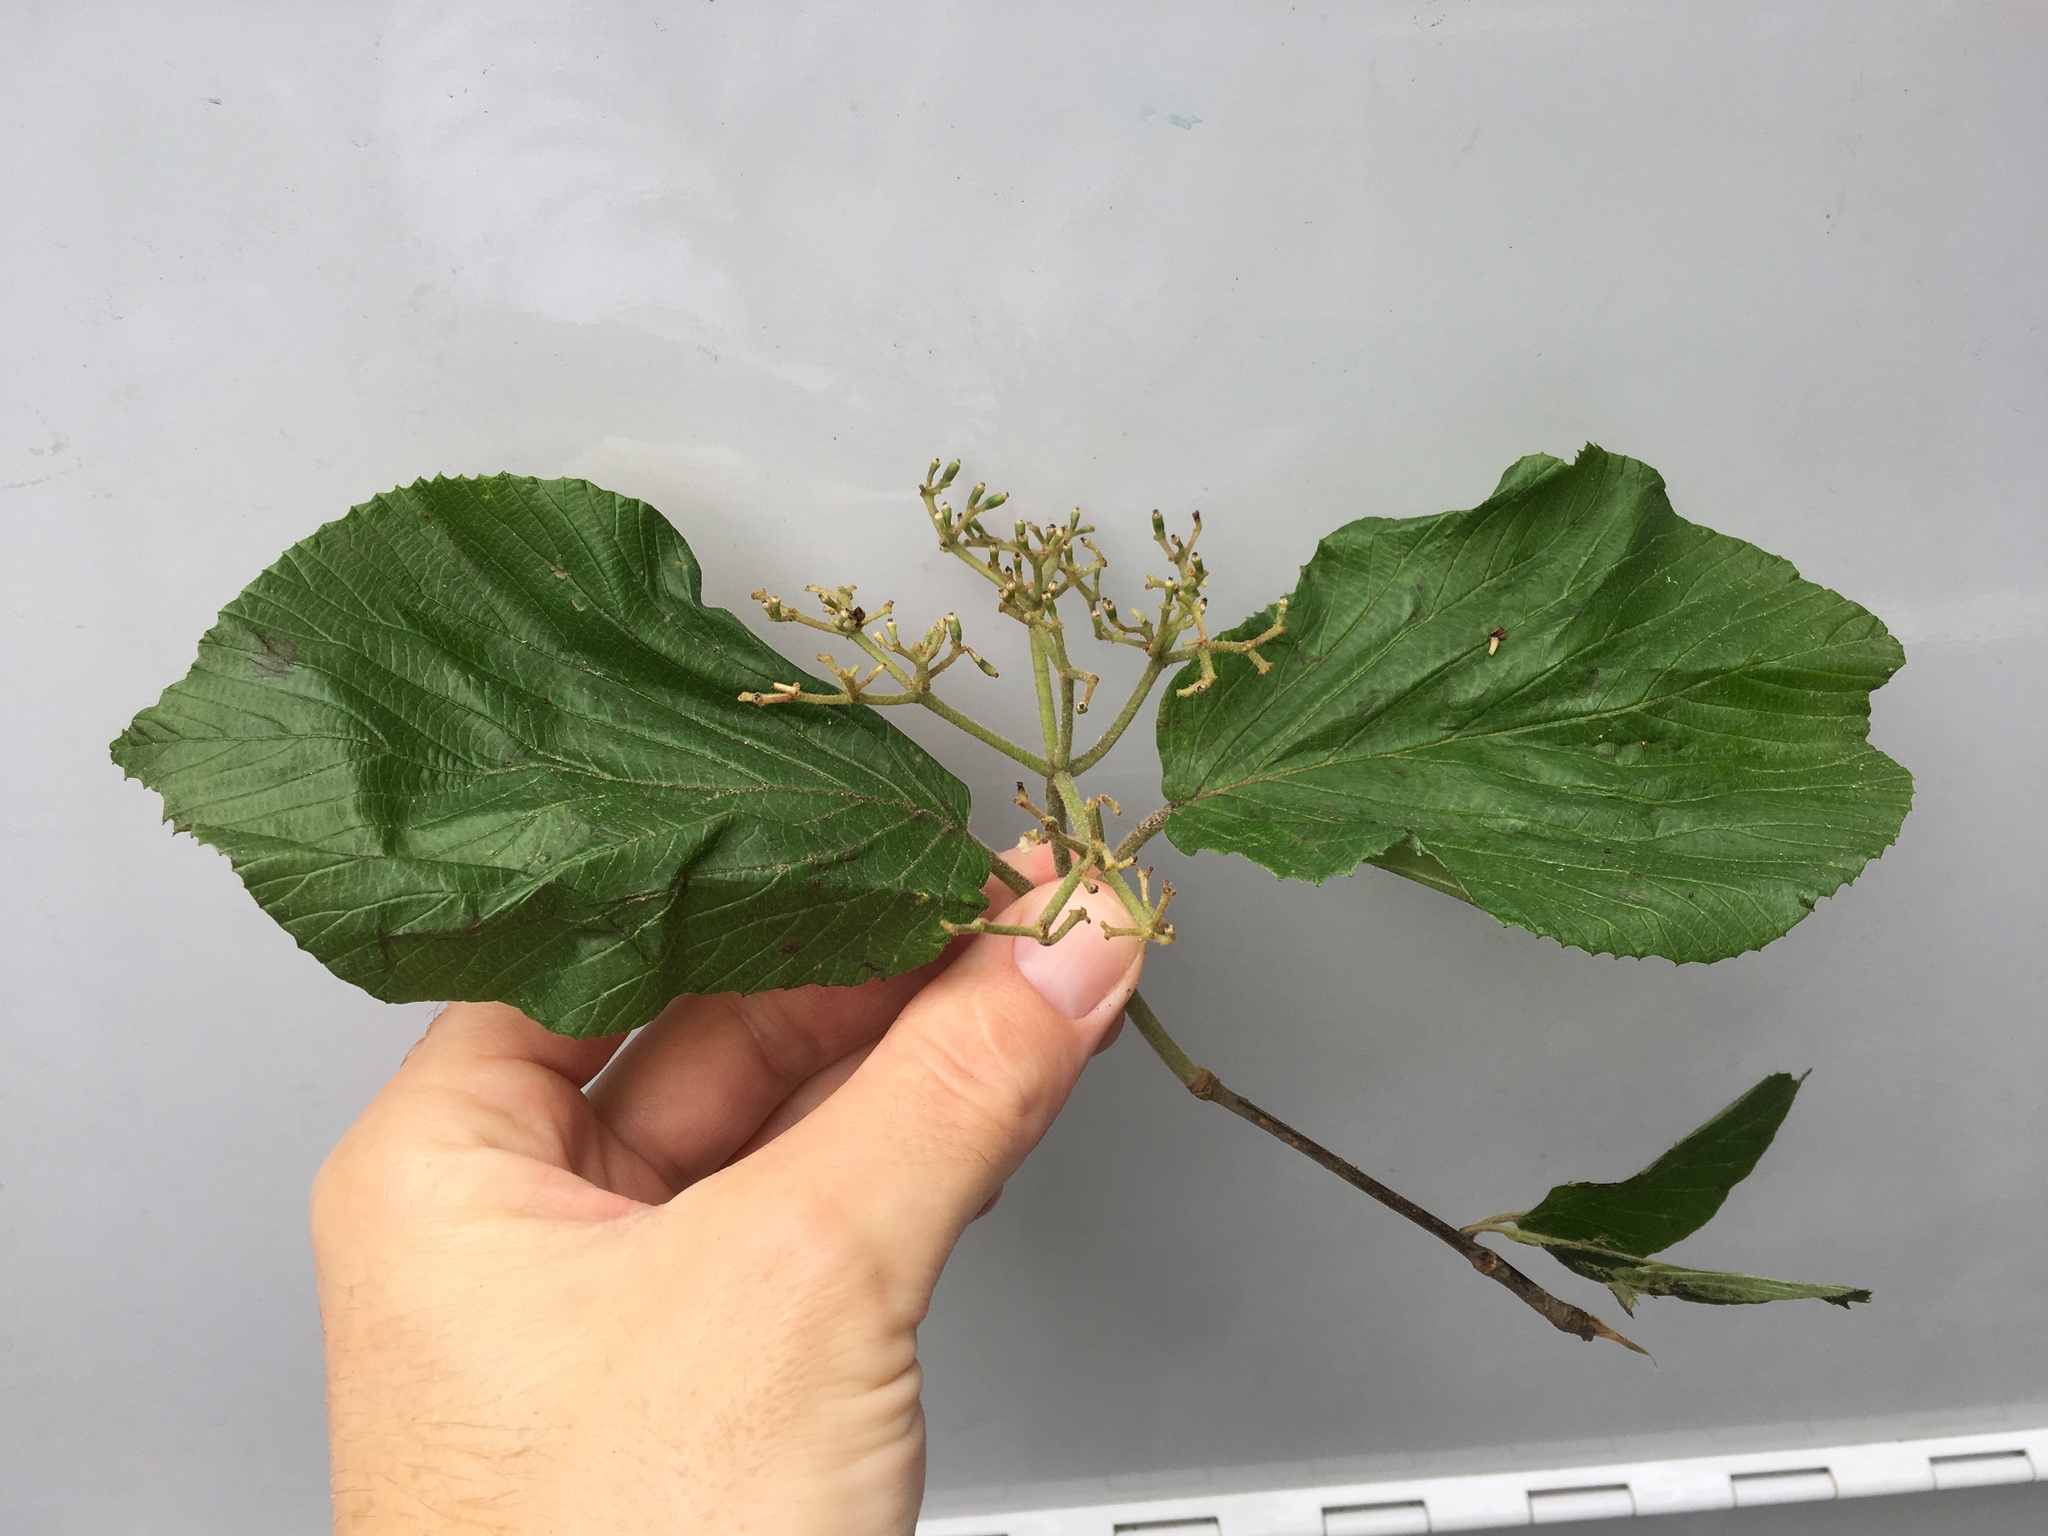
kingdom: Plantae
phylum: Tracheophyta
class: Magnoliopsida
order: Dipsacales
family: Viburnaceae
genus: Viburnum
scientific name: Viburnum dilatatum
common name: Linden arrowwood
